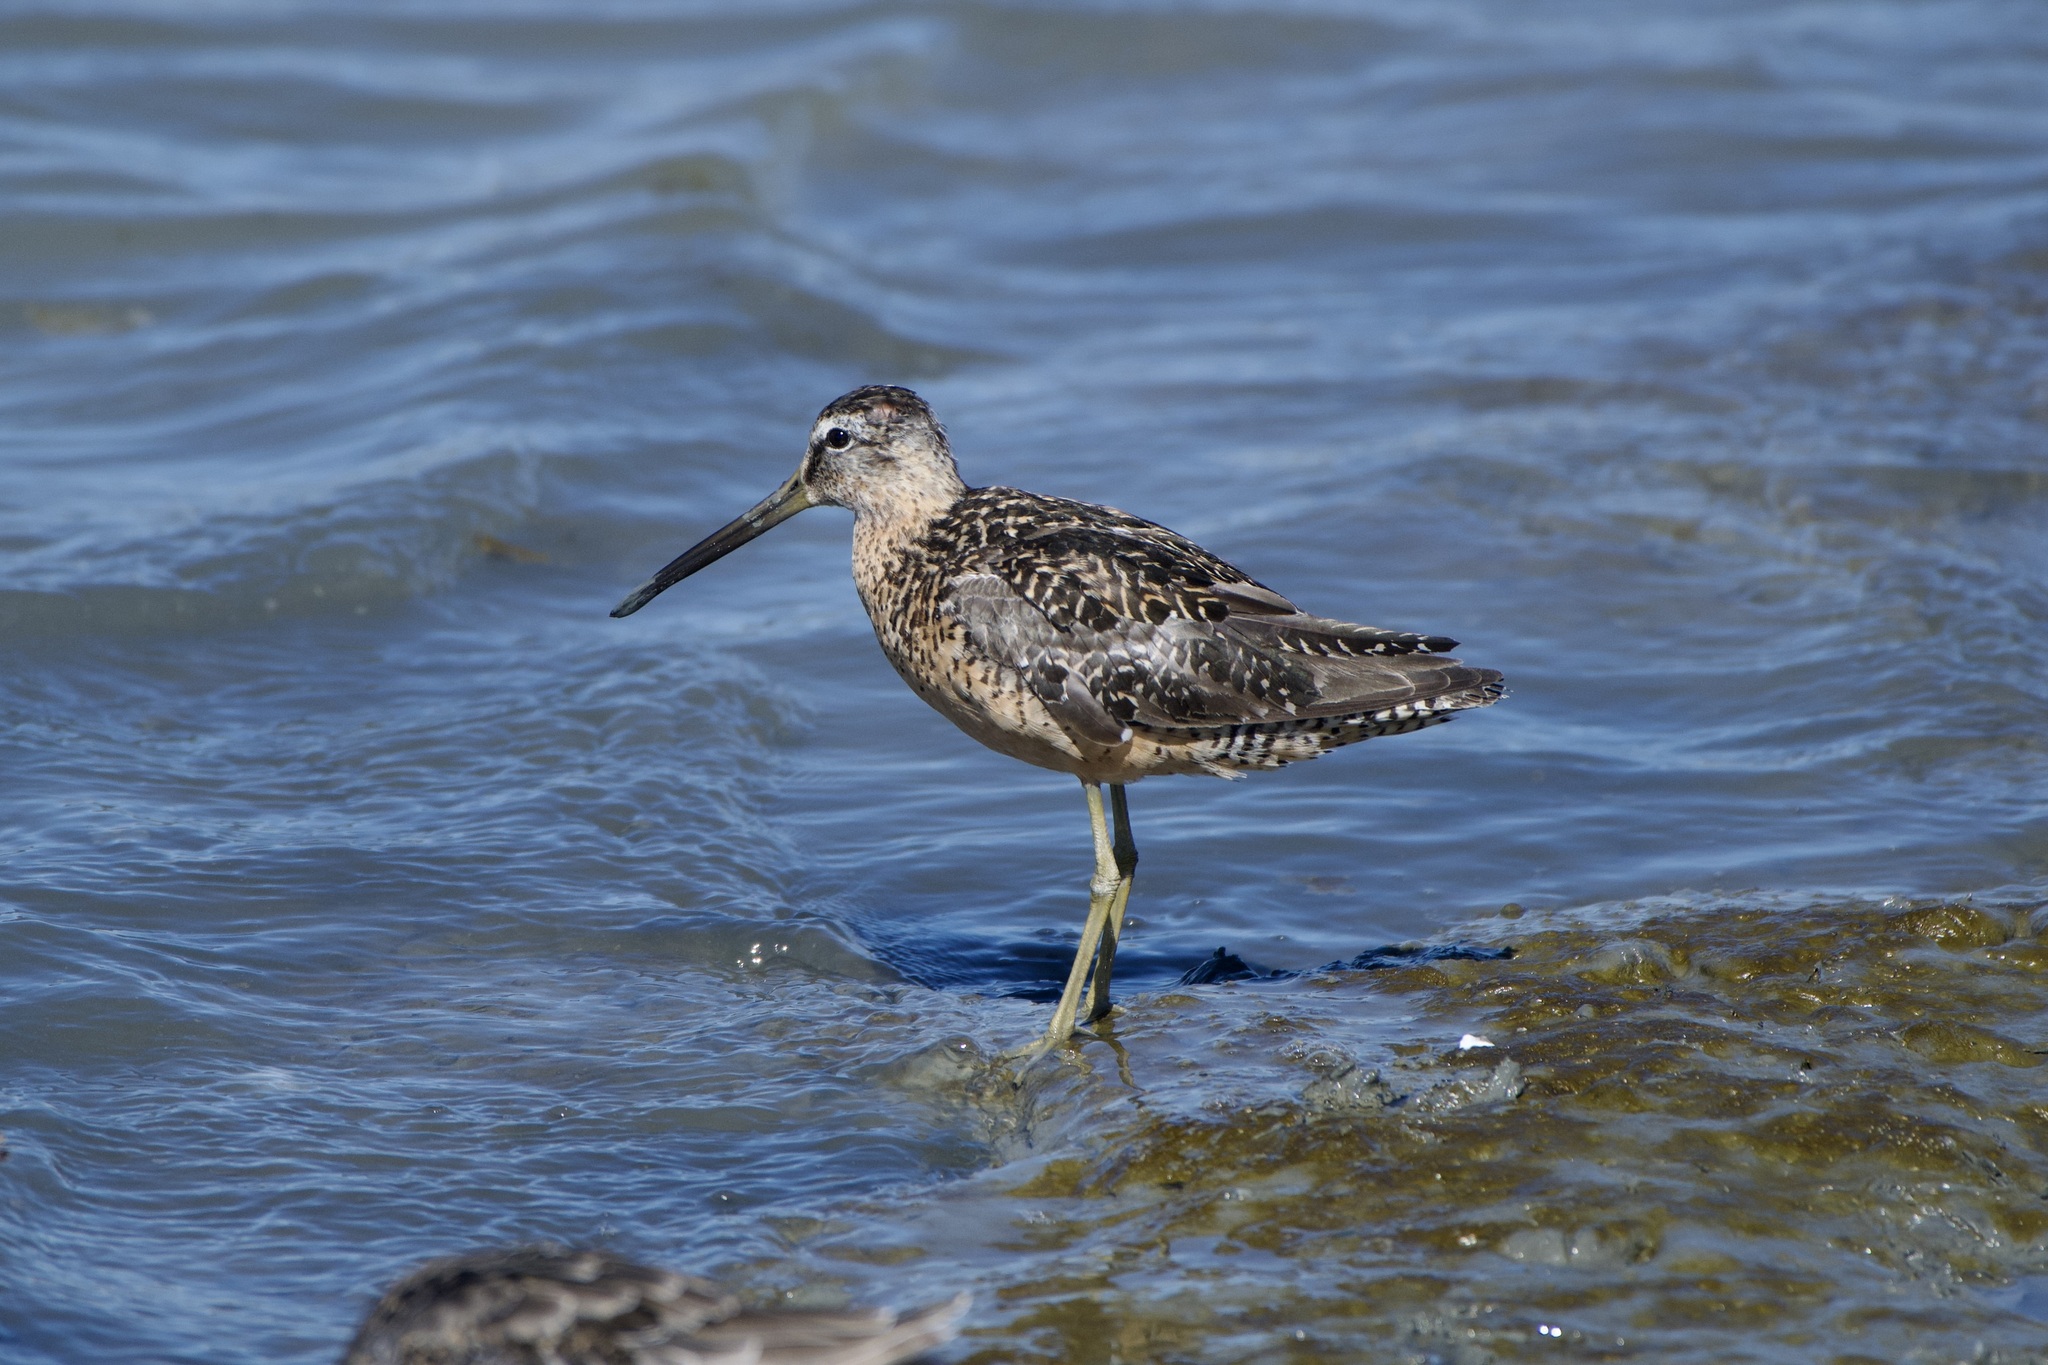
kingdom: Animalia
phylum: Chordata
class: Aves
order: Charadriiformes
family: Scolopacidae
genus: Limnodromus
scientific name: Limnodromus scolopaceus
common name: Long-billed dowitcher
